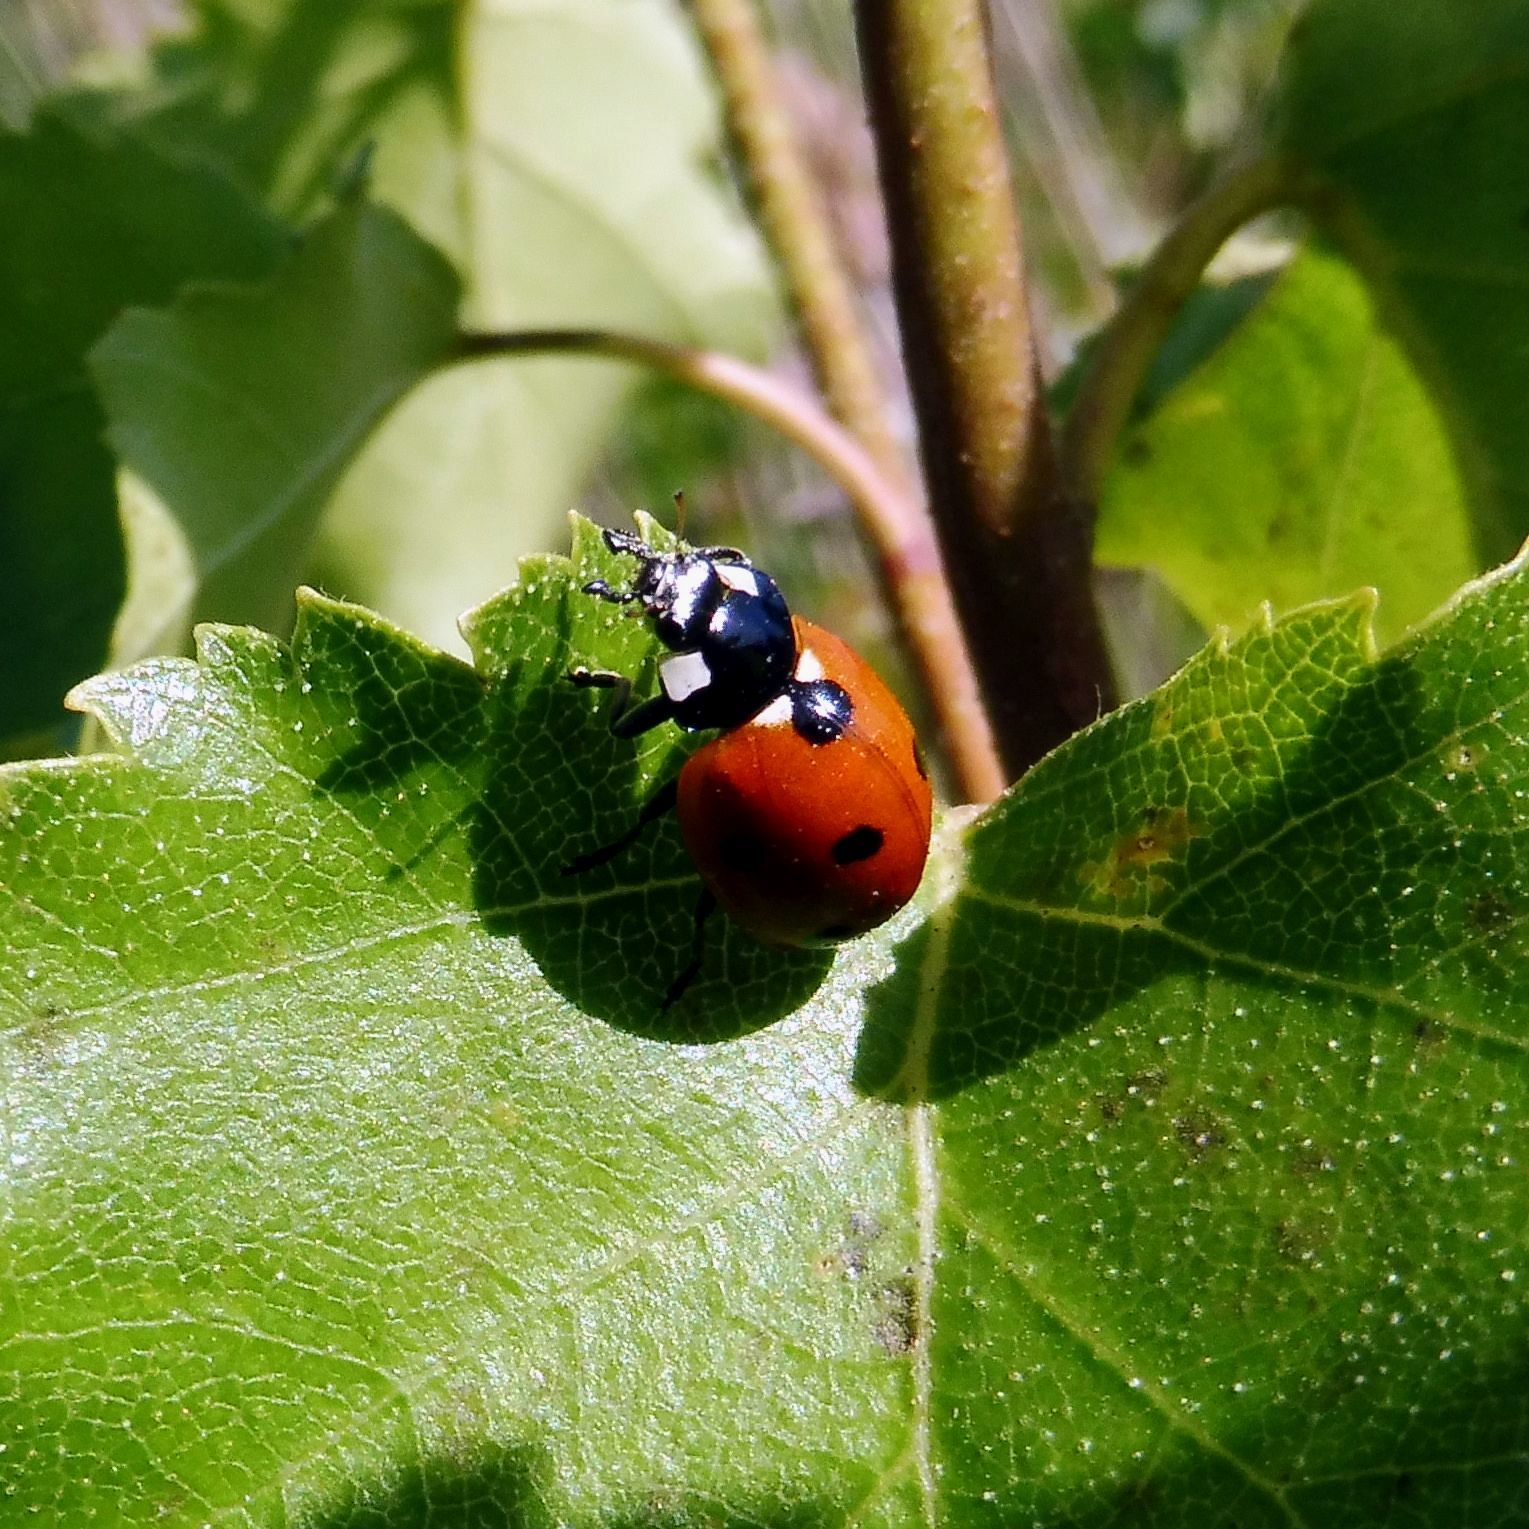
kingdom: Animalia
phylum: Arthropoda
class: Insecta
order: Coleoptera
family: Coccinellidae
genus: Coccinella
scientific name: Coccinella septempunctata
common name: Sevenspotted lady beetle
